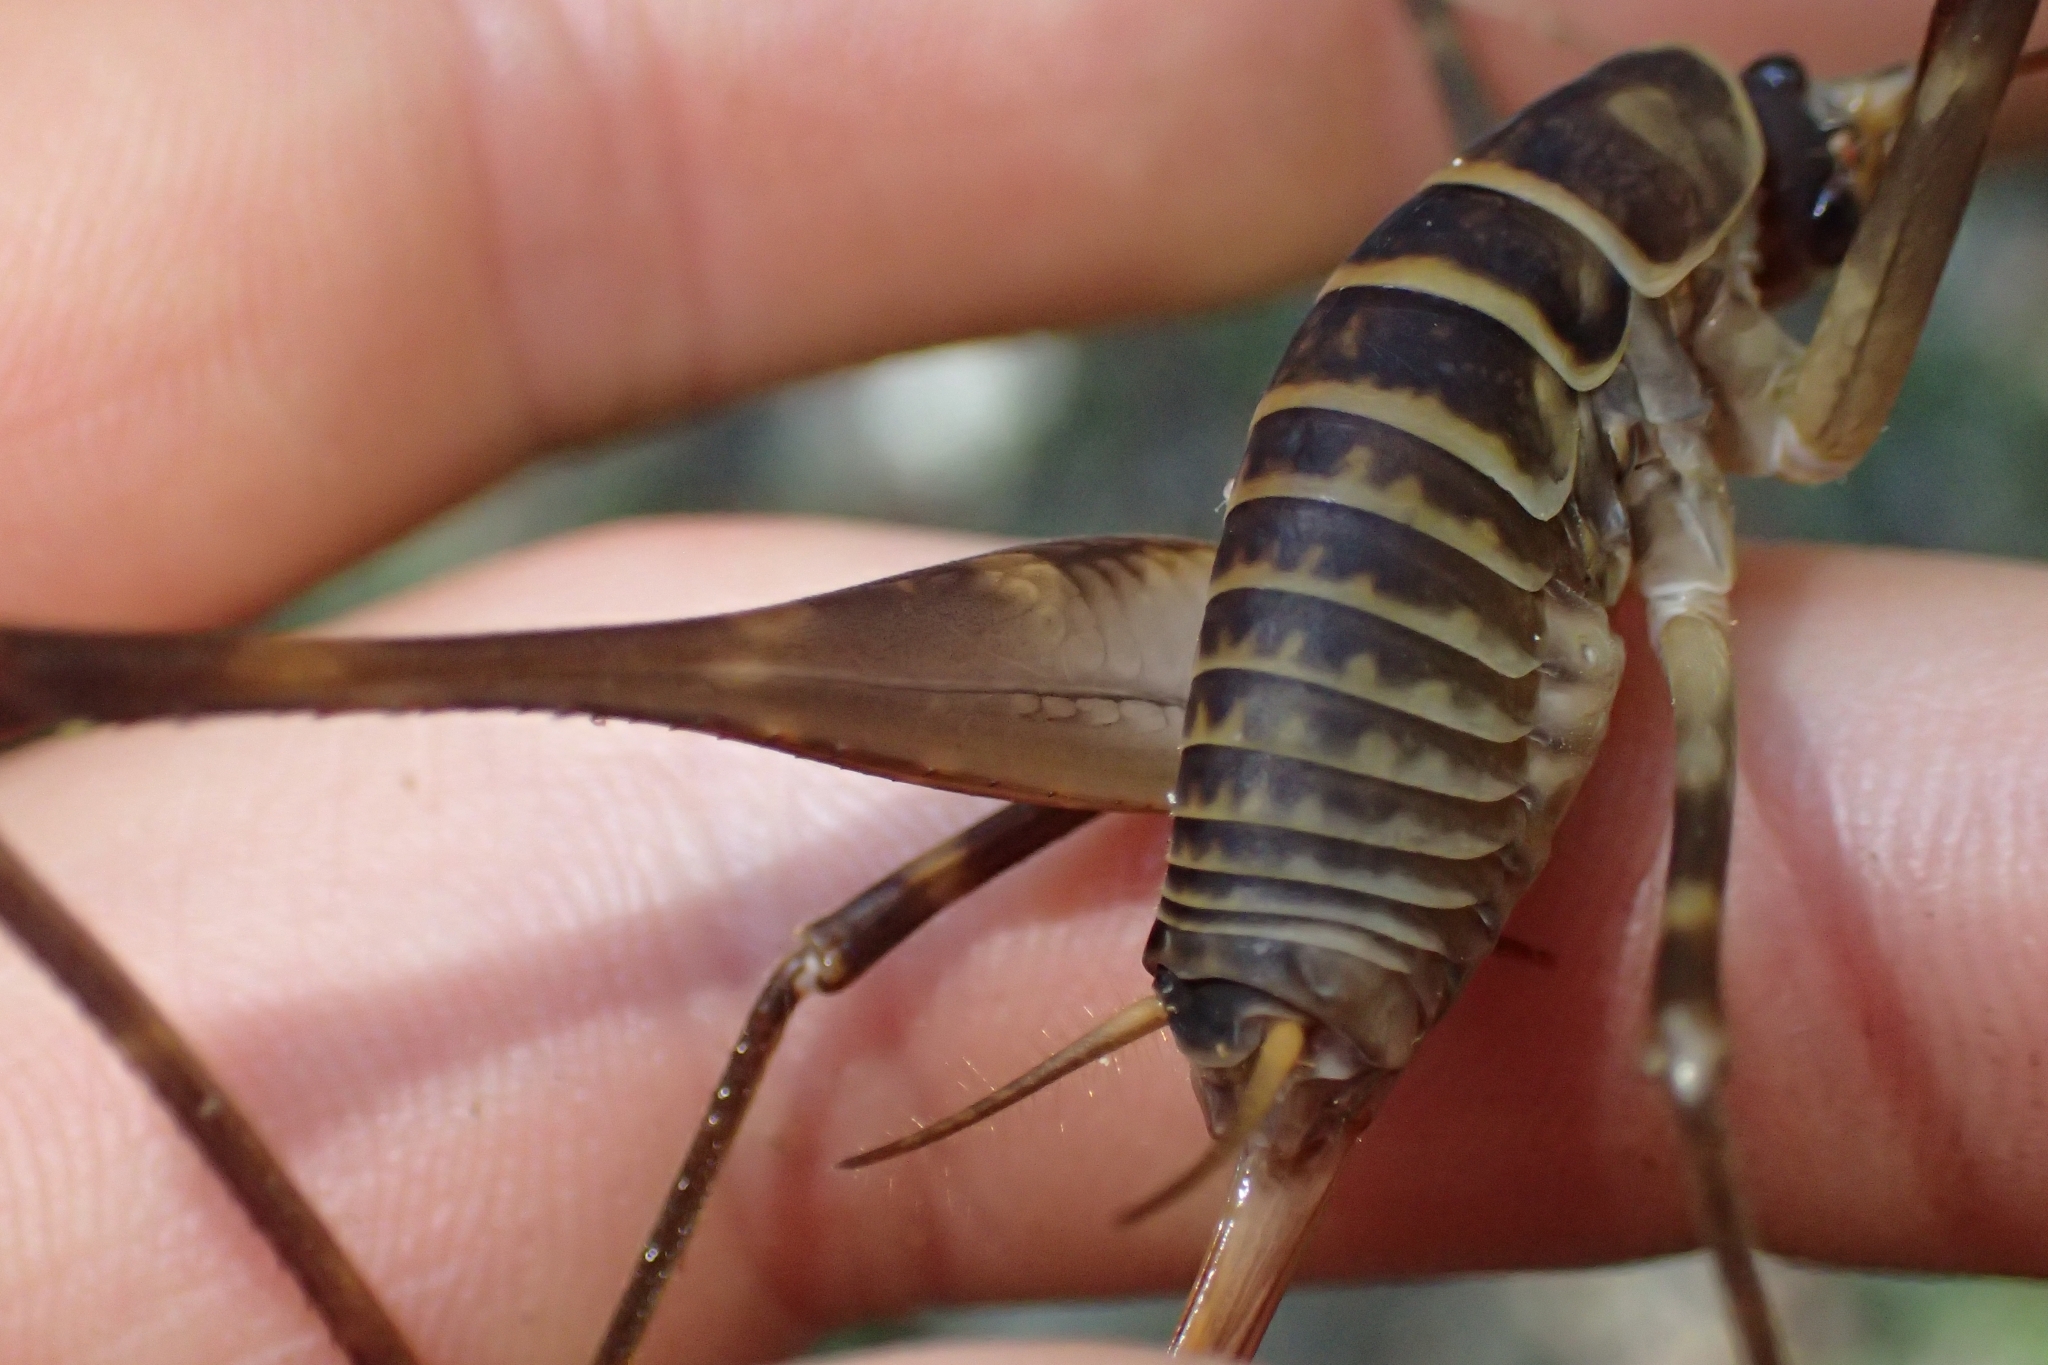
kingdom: Animalia
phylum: Arthropoda
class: Insecta
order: Orthoptera
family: Rhaphidophoridae
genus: Pachyrhamma
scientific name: Pachyrhamma acanthocera
